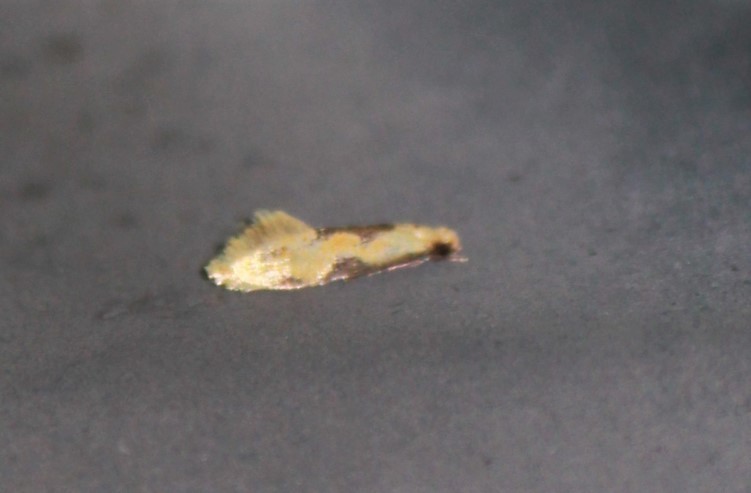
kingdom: Animalia
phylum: Arthropoda
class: Insecta
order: Lepidoptera
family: Meessiidae
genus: Hybroma
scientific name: Hybroma servulella
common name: Yellow wave moth
